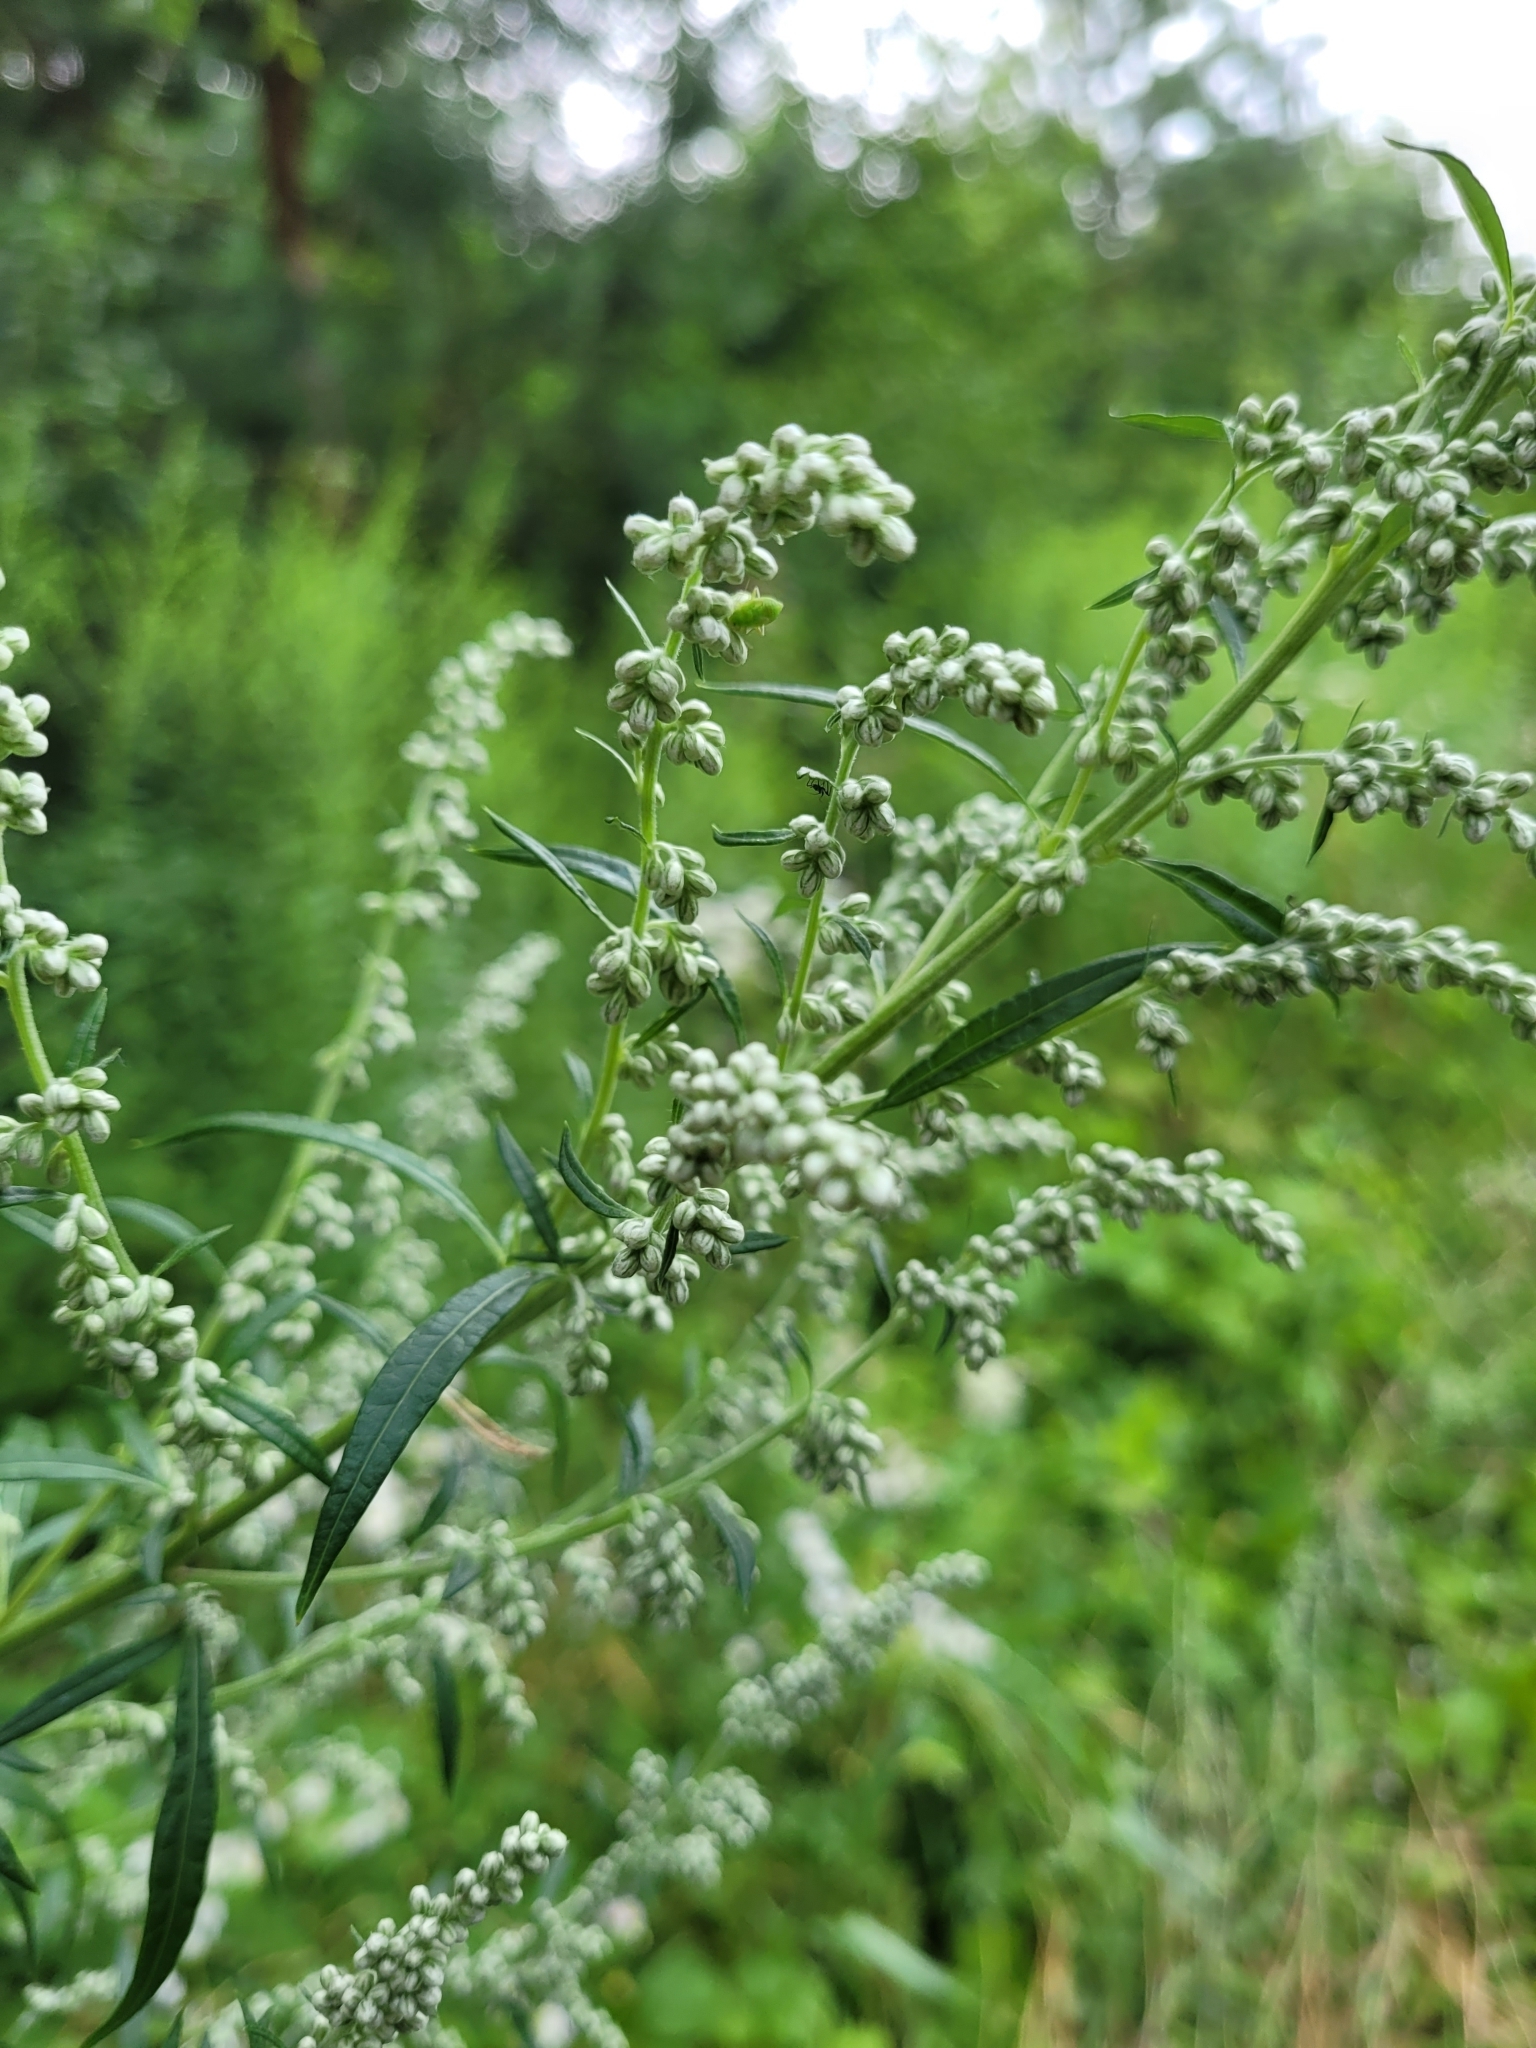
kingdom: Plantae
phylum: Tracheophyta
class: Magnoliopsida
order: Asterales
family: Asteraceae
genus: Artemisia
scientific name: Artemisia vulgaris
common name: Mugwort
